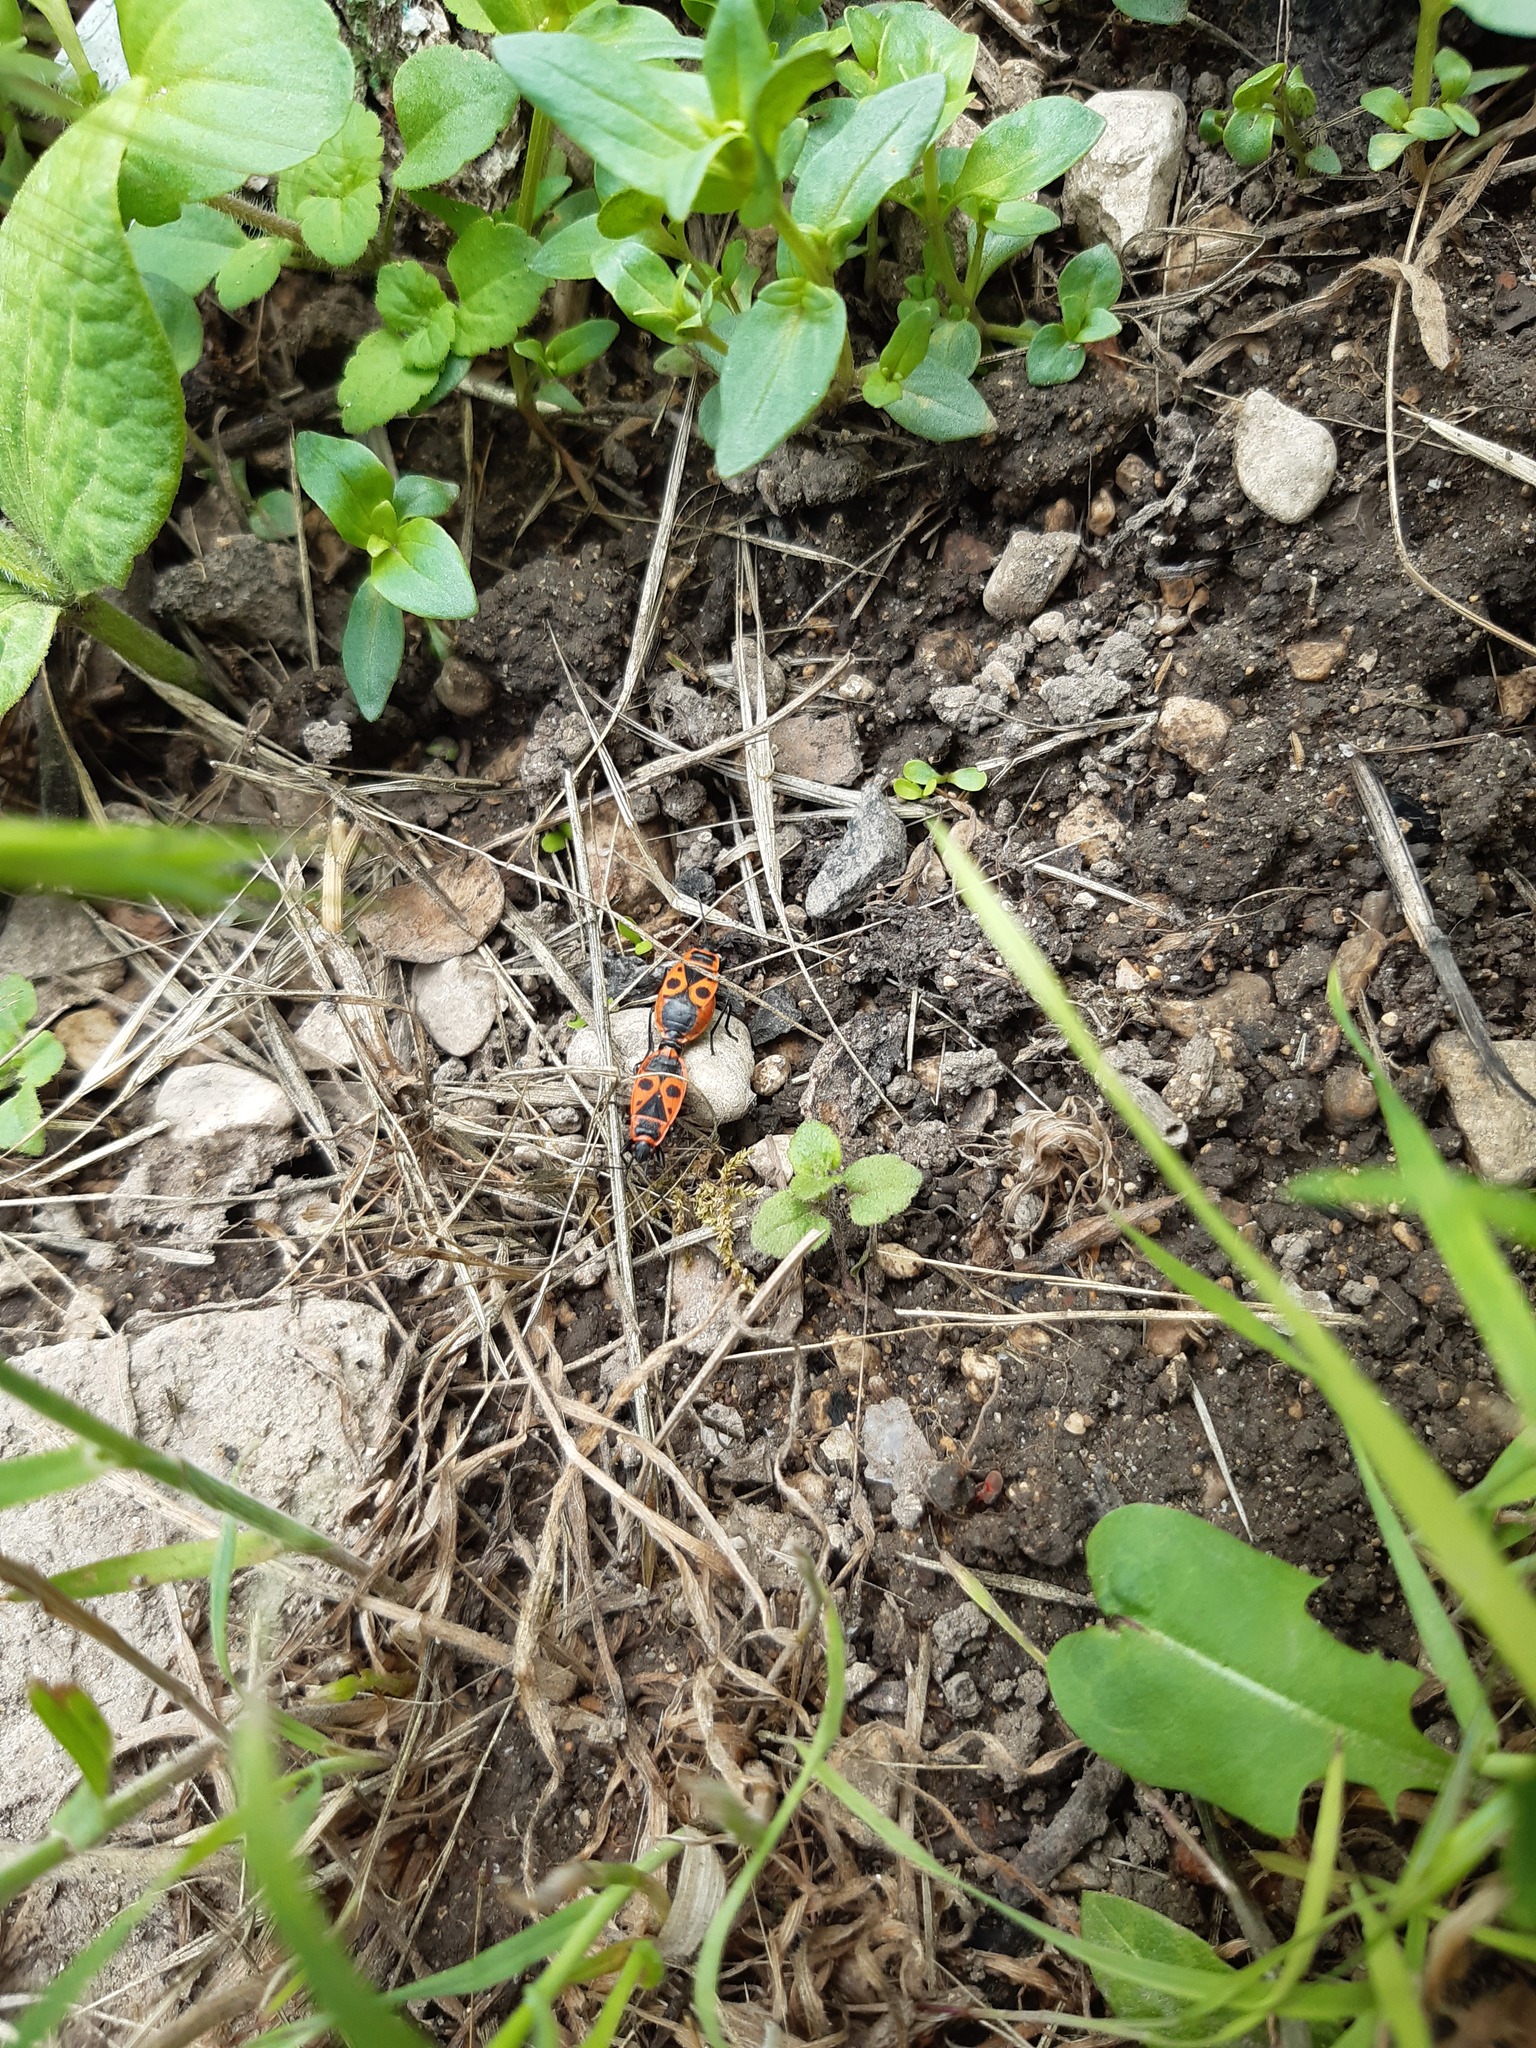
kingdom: Animalia
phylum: Arthropoda
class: Insecta
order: Hemiptera
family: Pyrrhocoridae
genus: Pyrrhocoris
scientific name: Pyrrhocoris apterus
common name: Firebug
